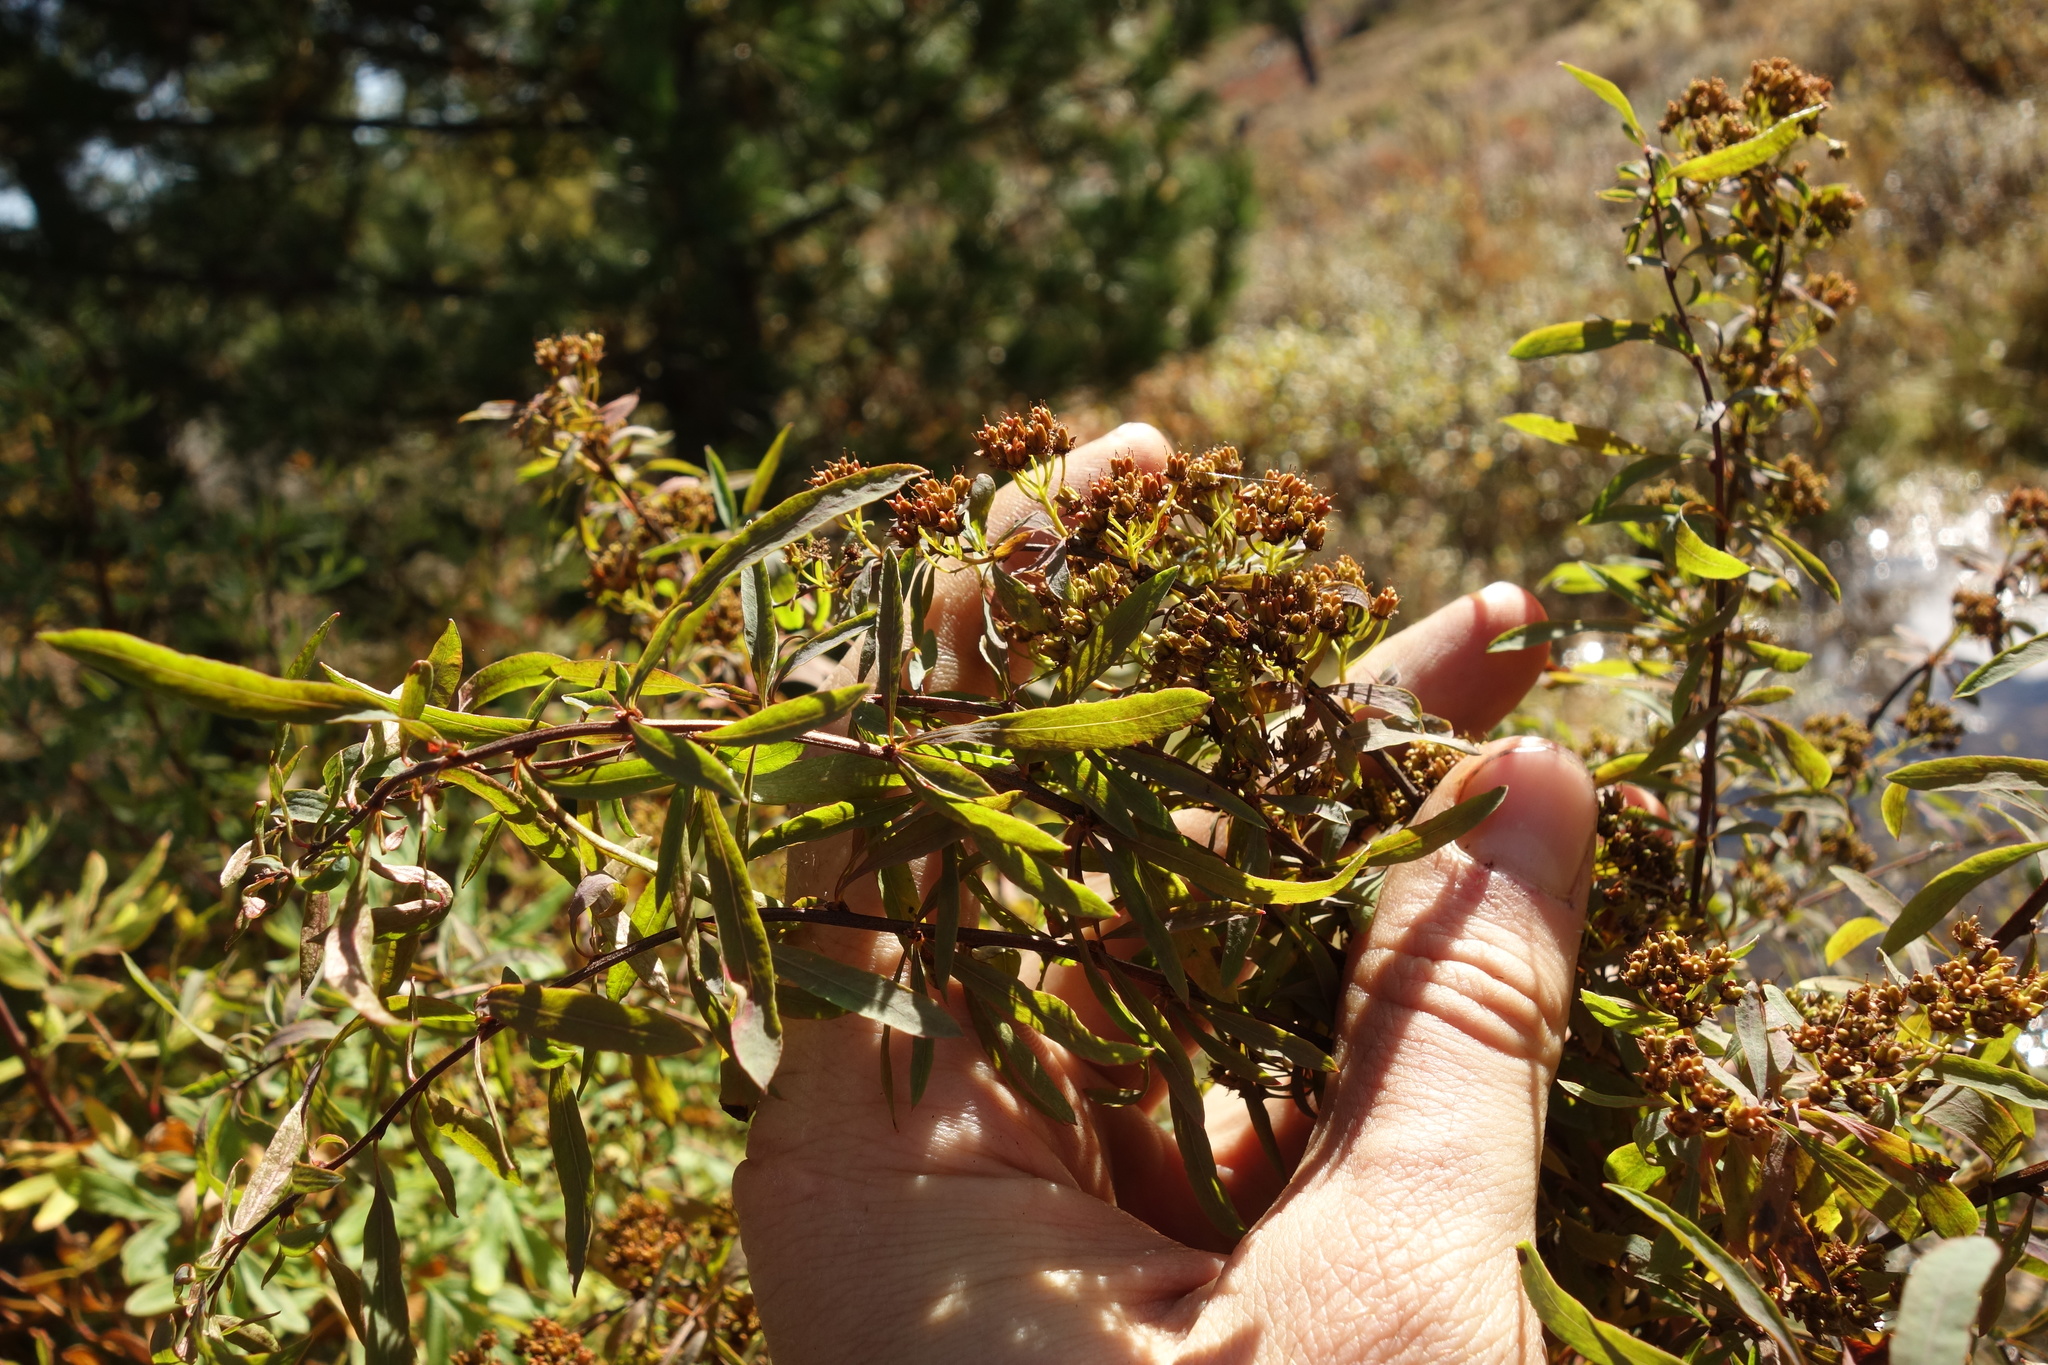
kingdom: Plantae
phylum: Tracheophyta
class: Magnoliopsida
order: Rosales
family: Rosaceae
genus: Spiraea
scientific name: Spiraea alpina
